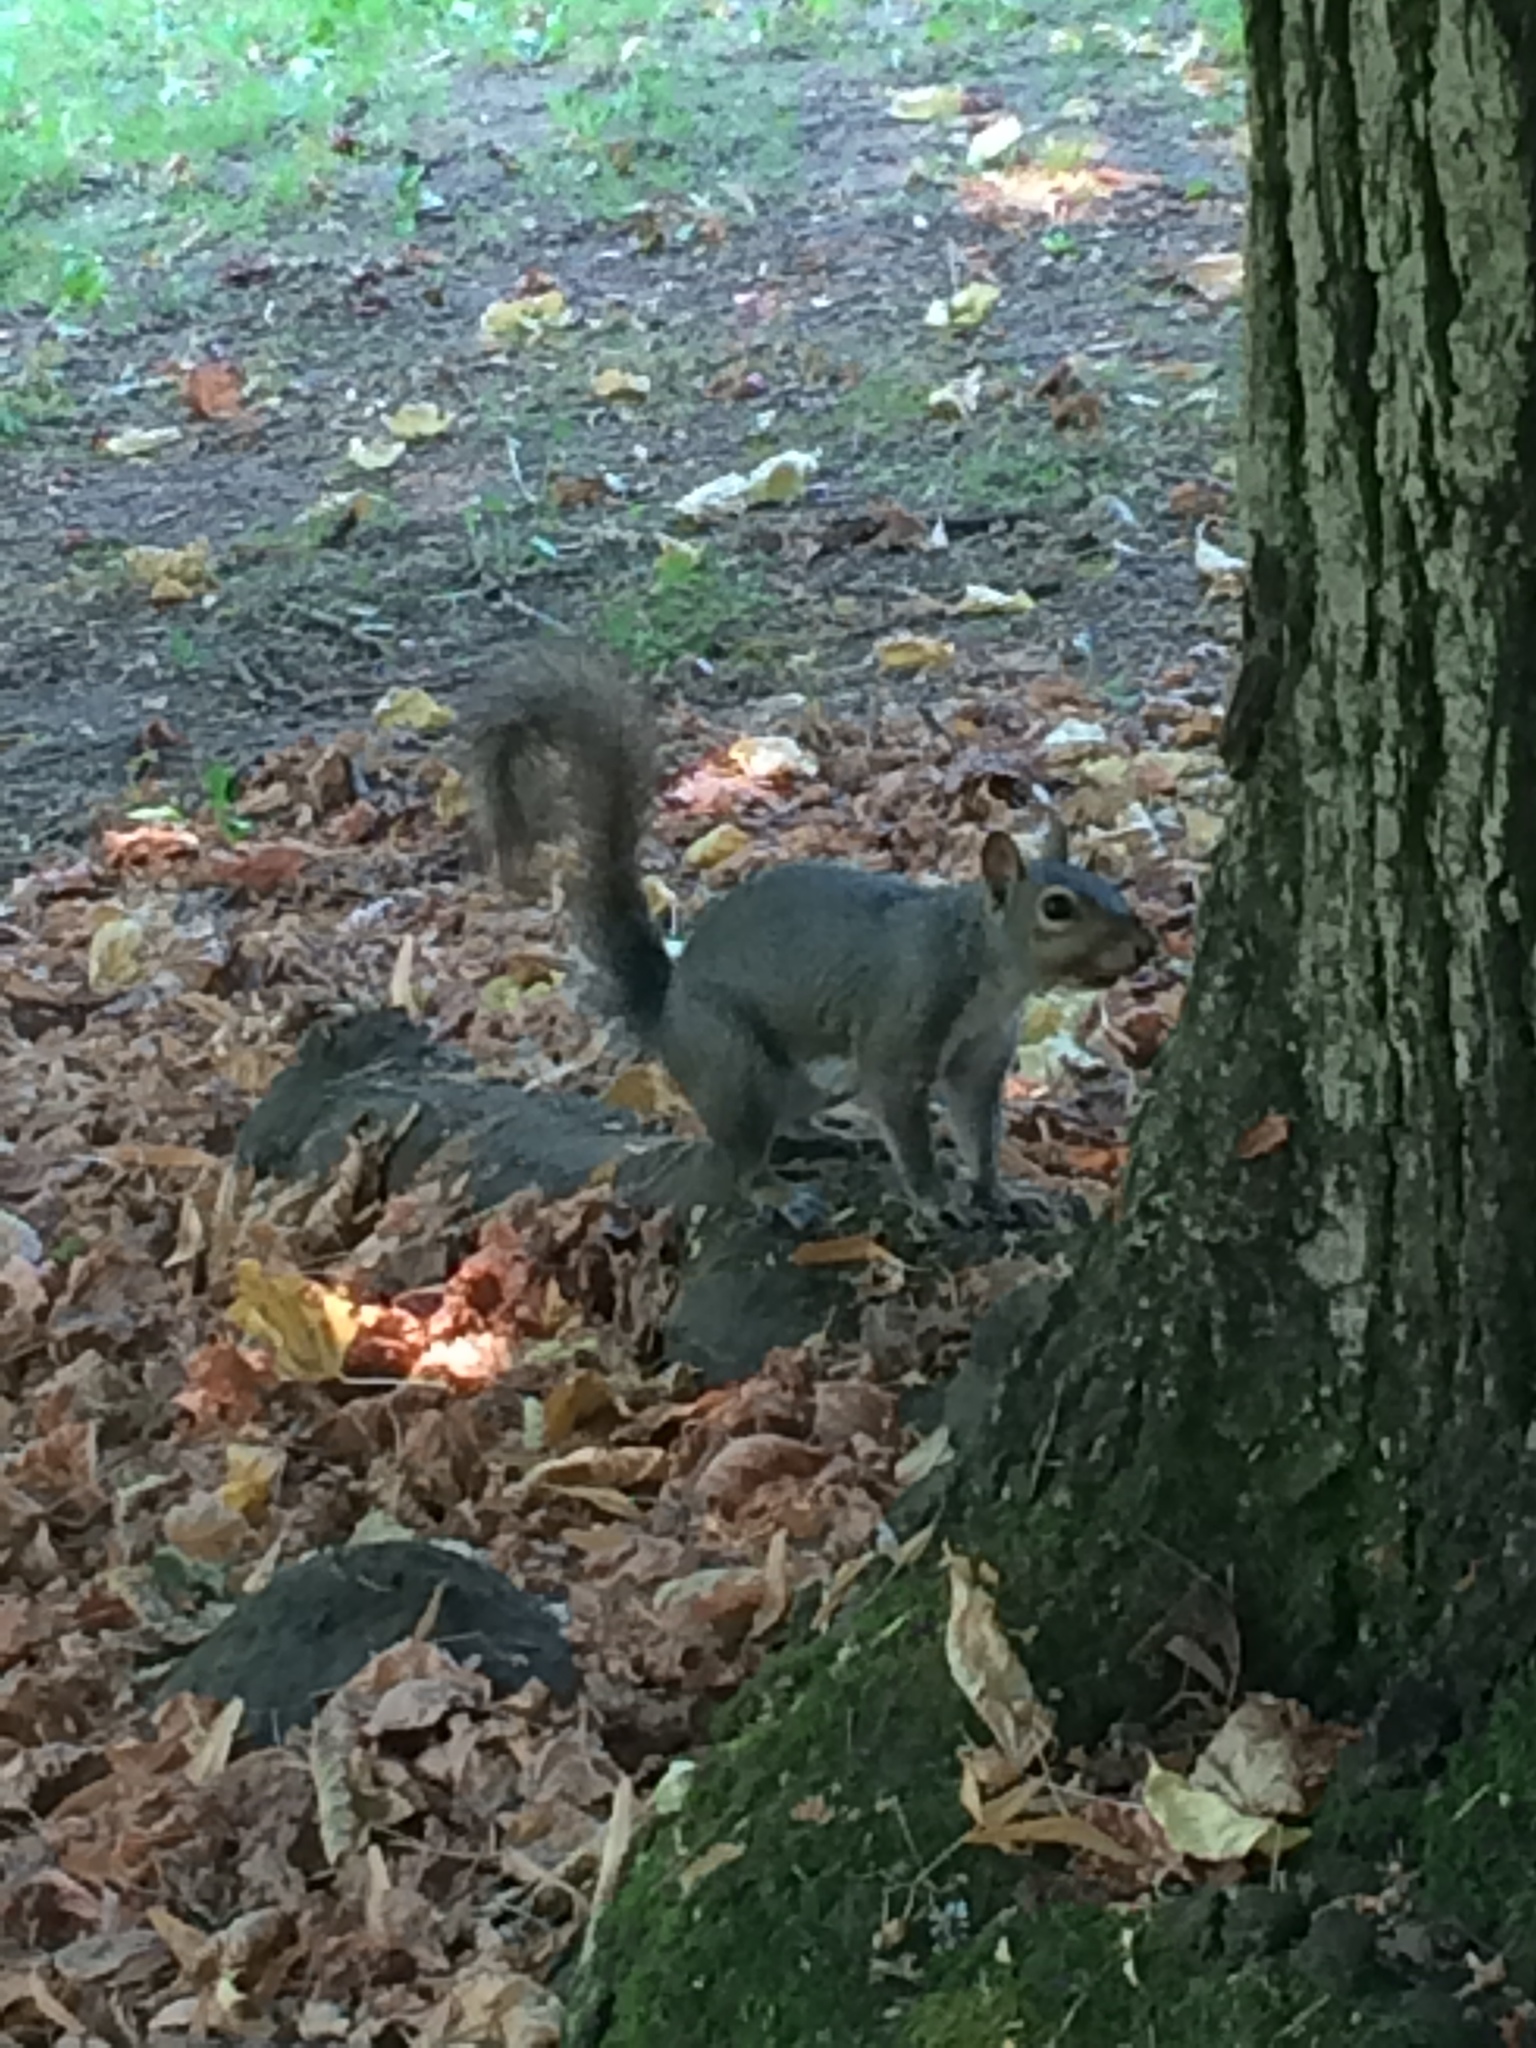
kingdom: Animalia
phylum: Chordata
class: Mammalia
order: Rodentia
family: Sciuridae
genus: Sciurus
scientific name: Sciurus carolinensis
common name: Eastern gray squirrel
